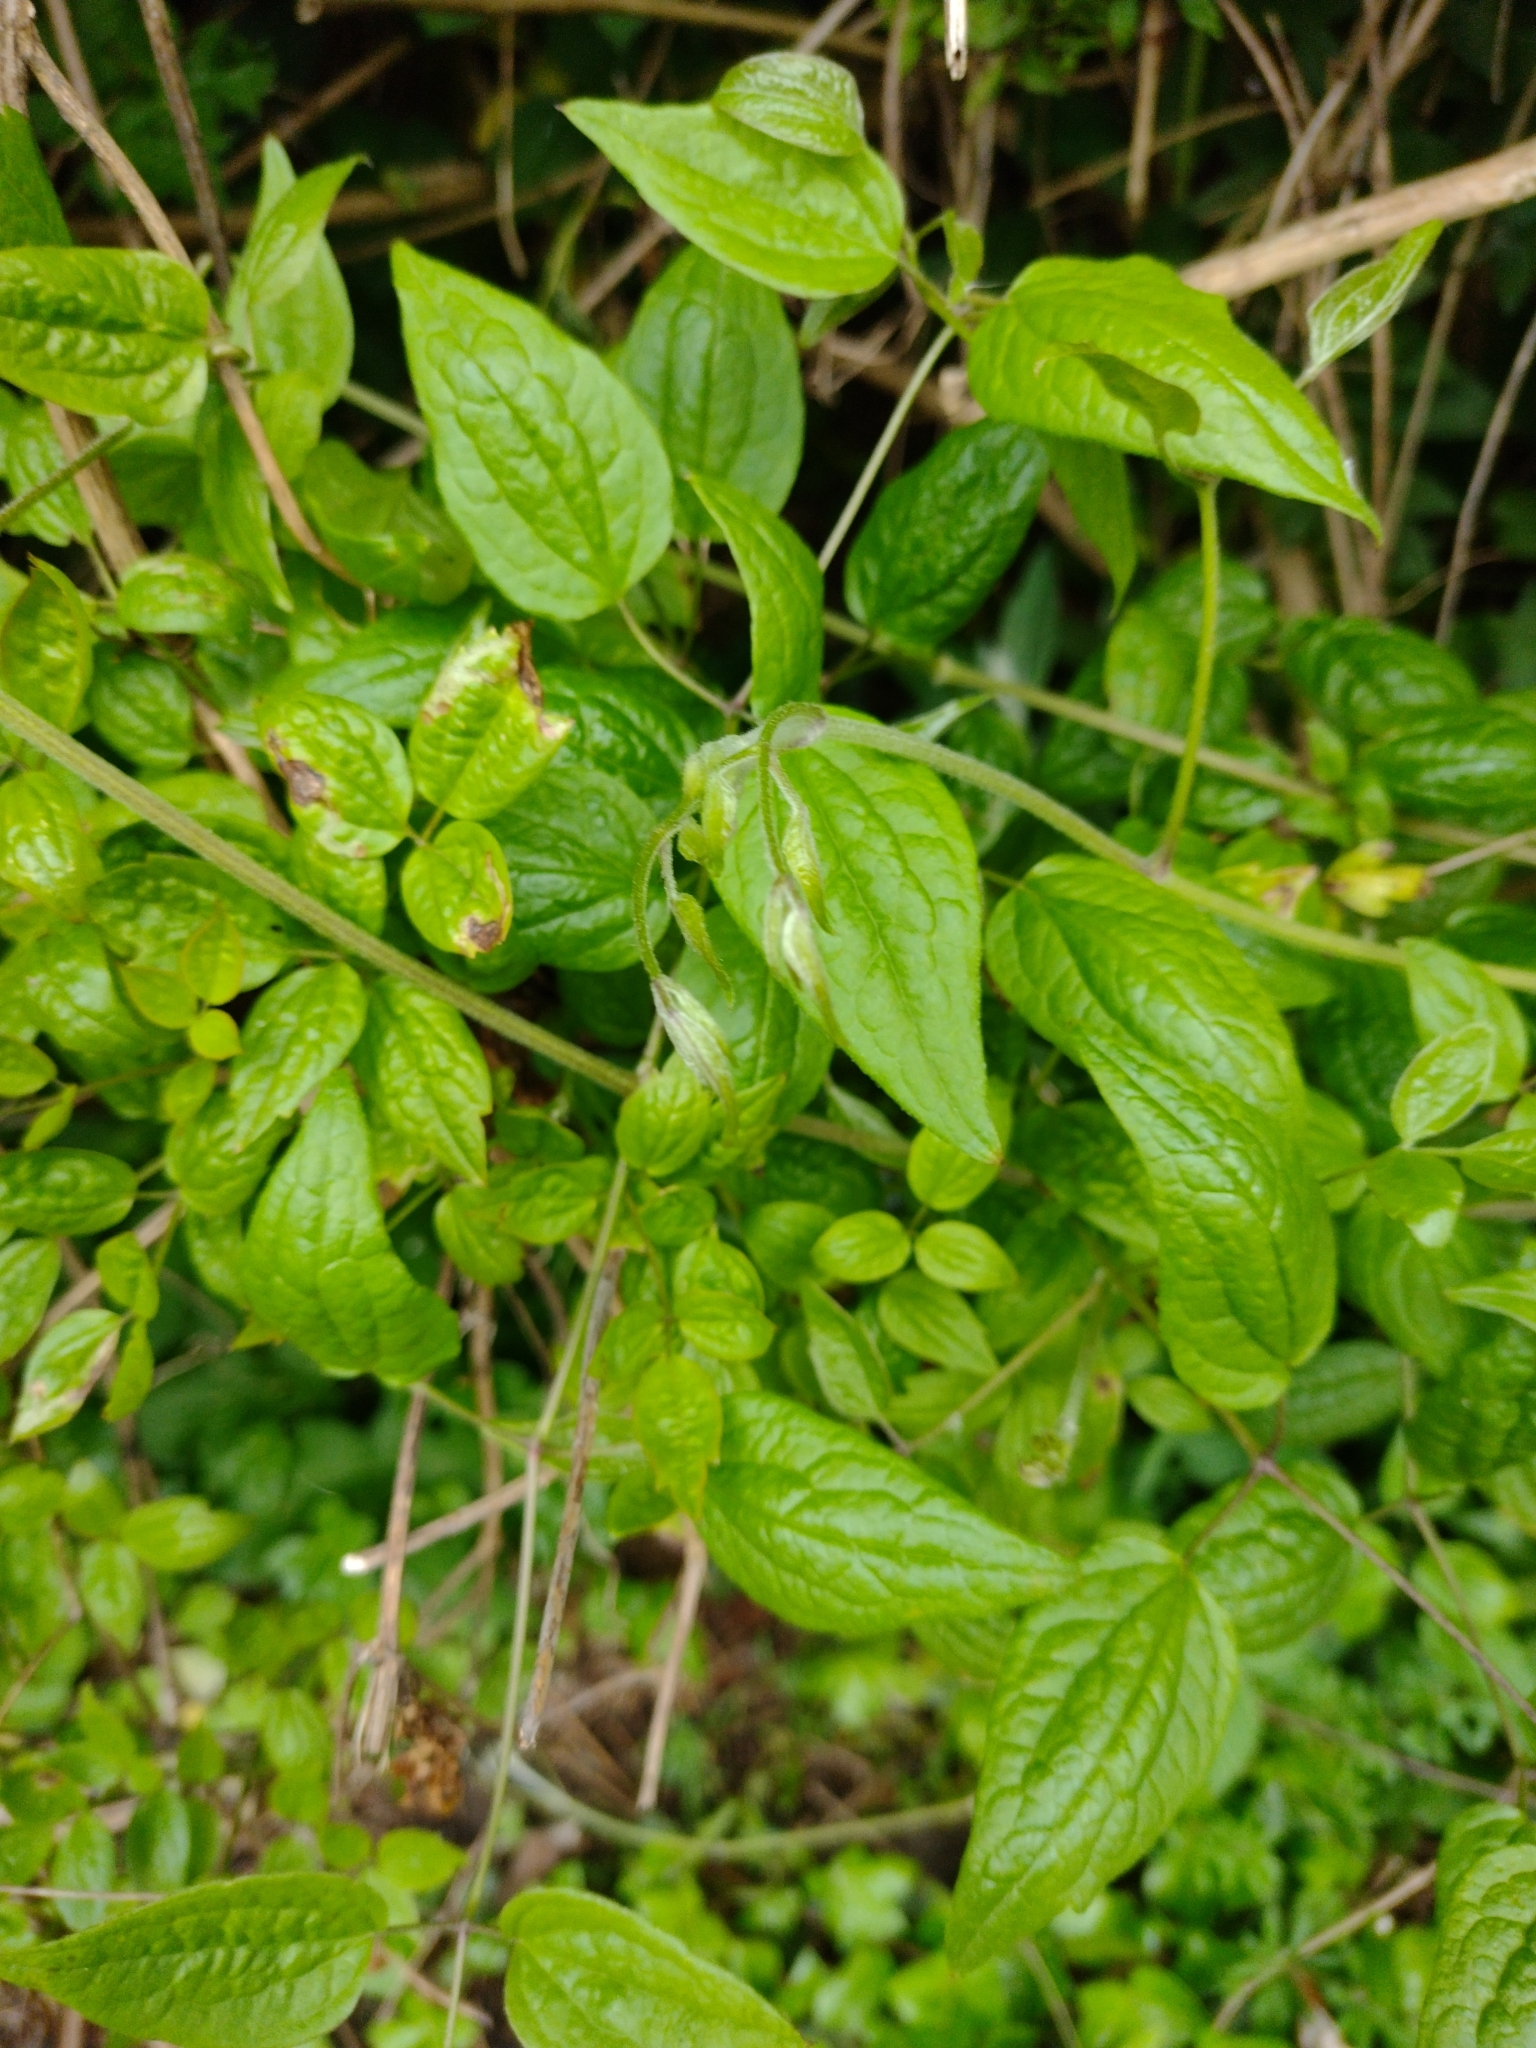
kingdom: Plantae
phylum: Tracheophyta
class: Magnoliopsida
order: Ranunculales
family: Ranunculaceae
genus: Clematis
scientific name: Clematis vitalba
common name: Evergreen clematis
